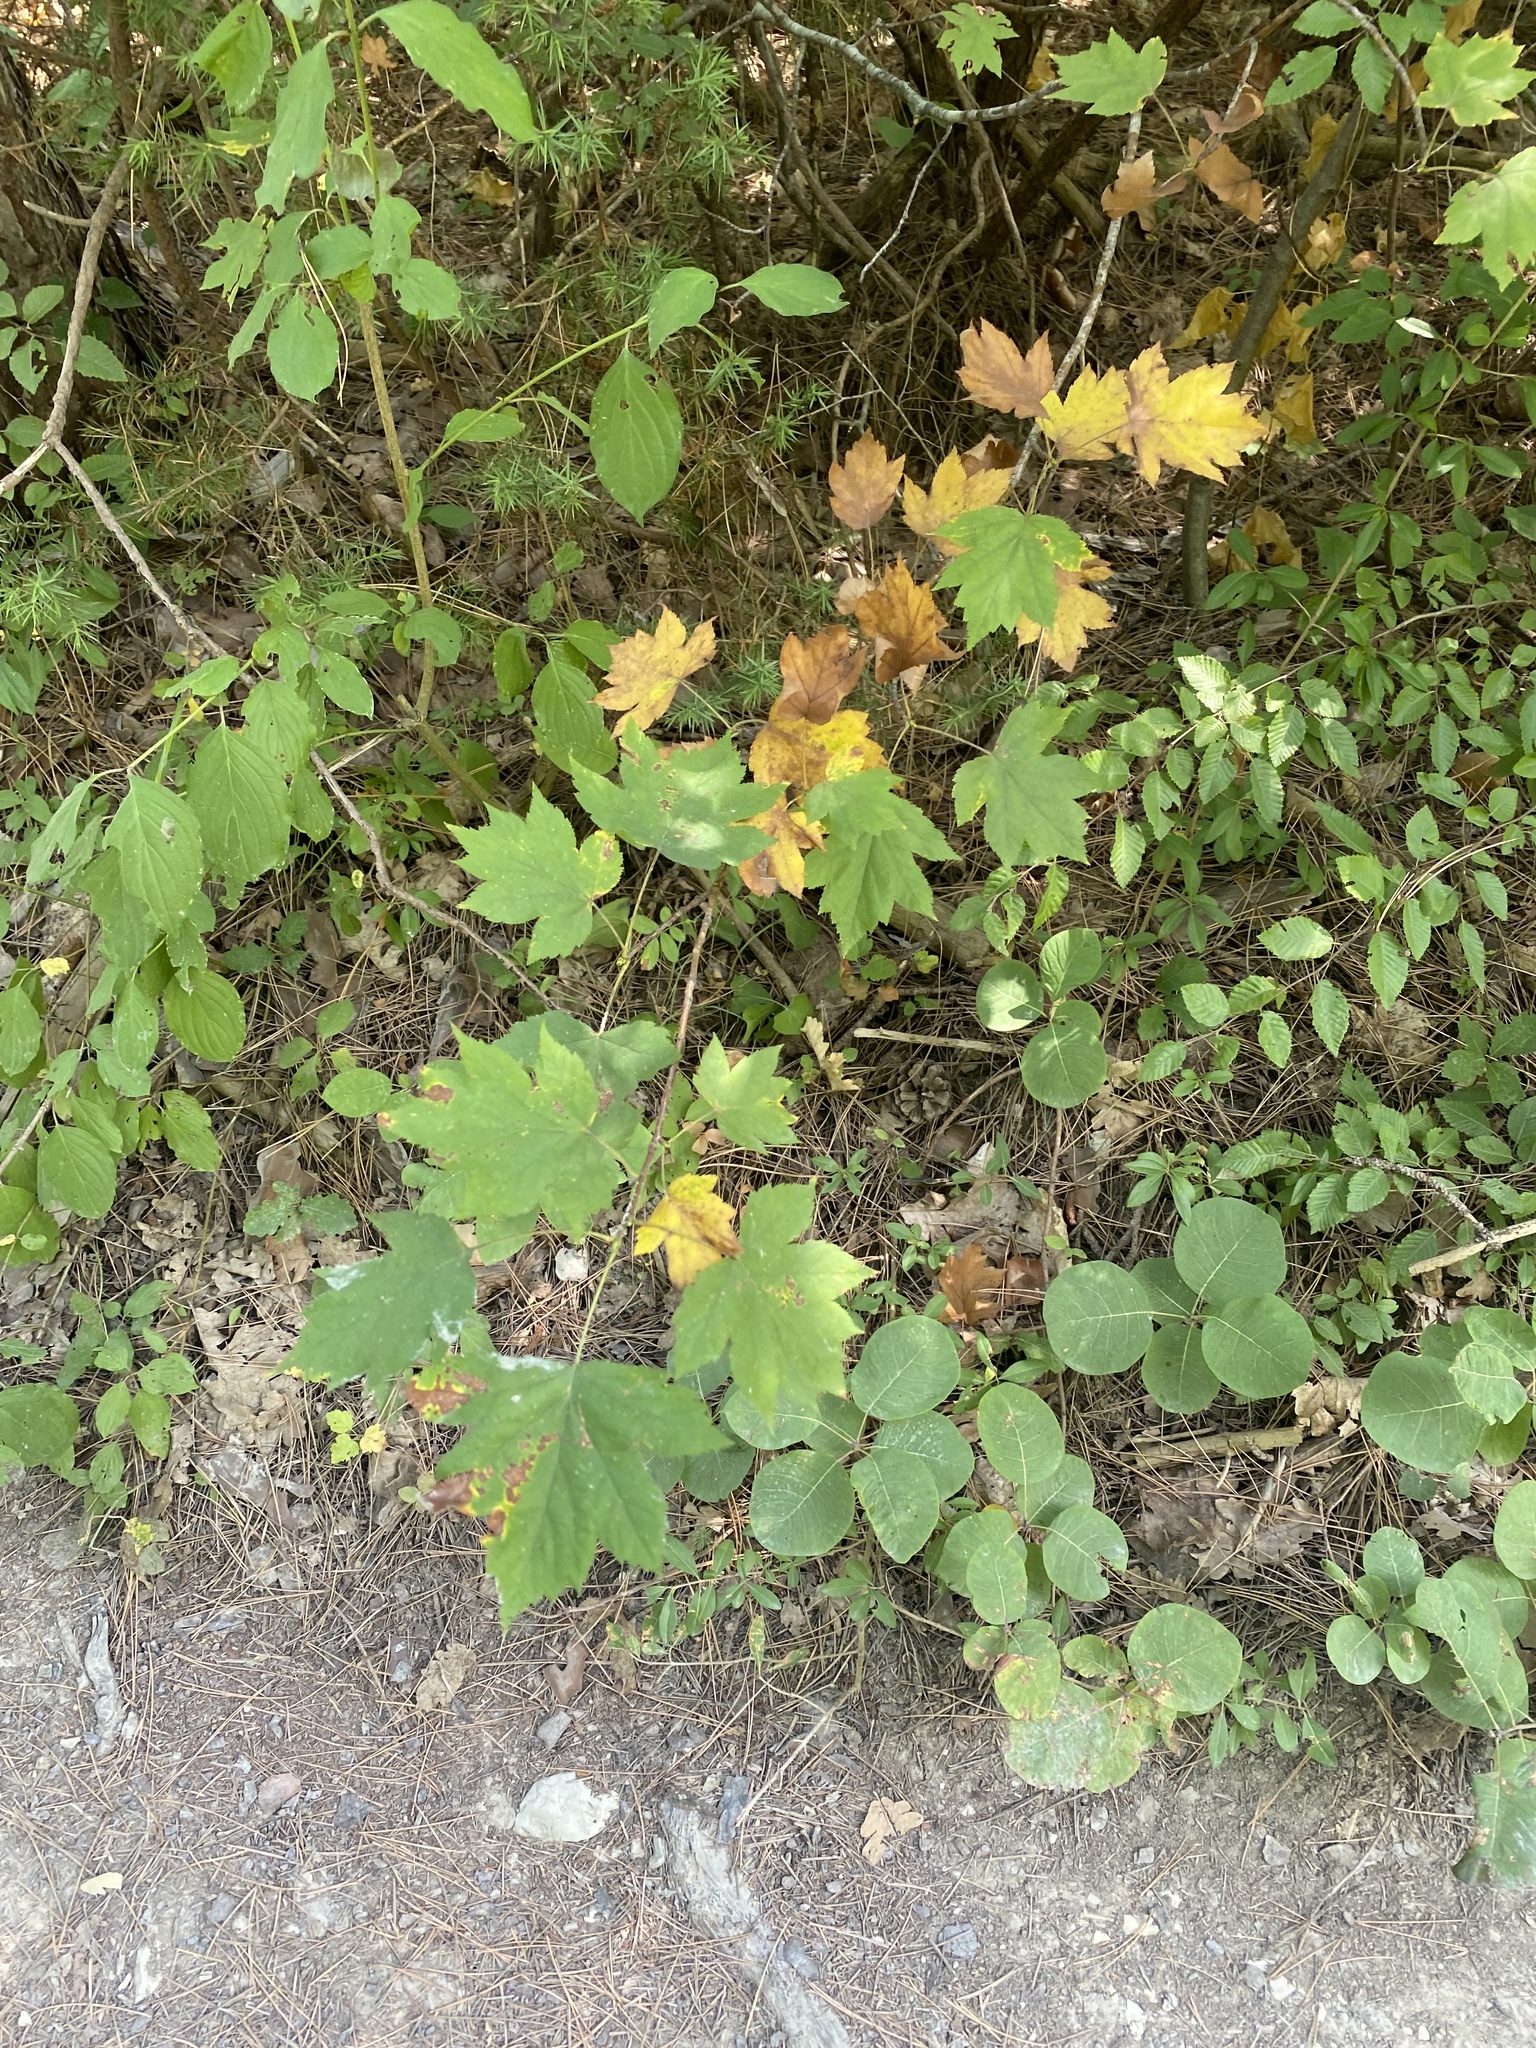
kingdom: Plantae
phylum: Tracheophyta
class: Magnoliopsida
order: Rosales
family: Rosaceae
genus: Torminalis
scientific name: Torminalis glaberrima
